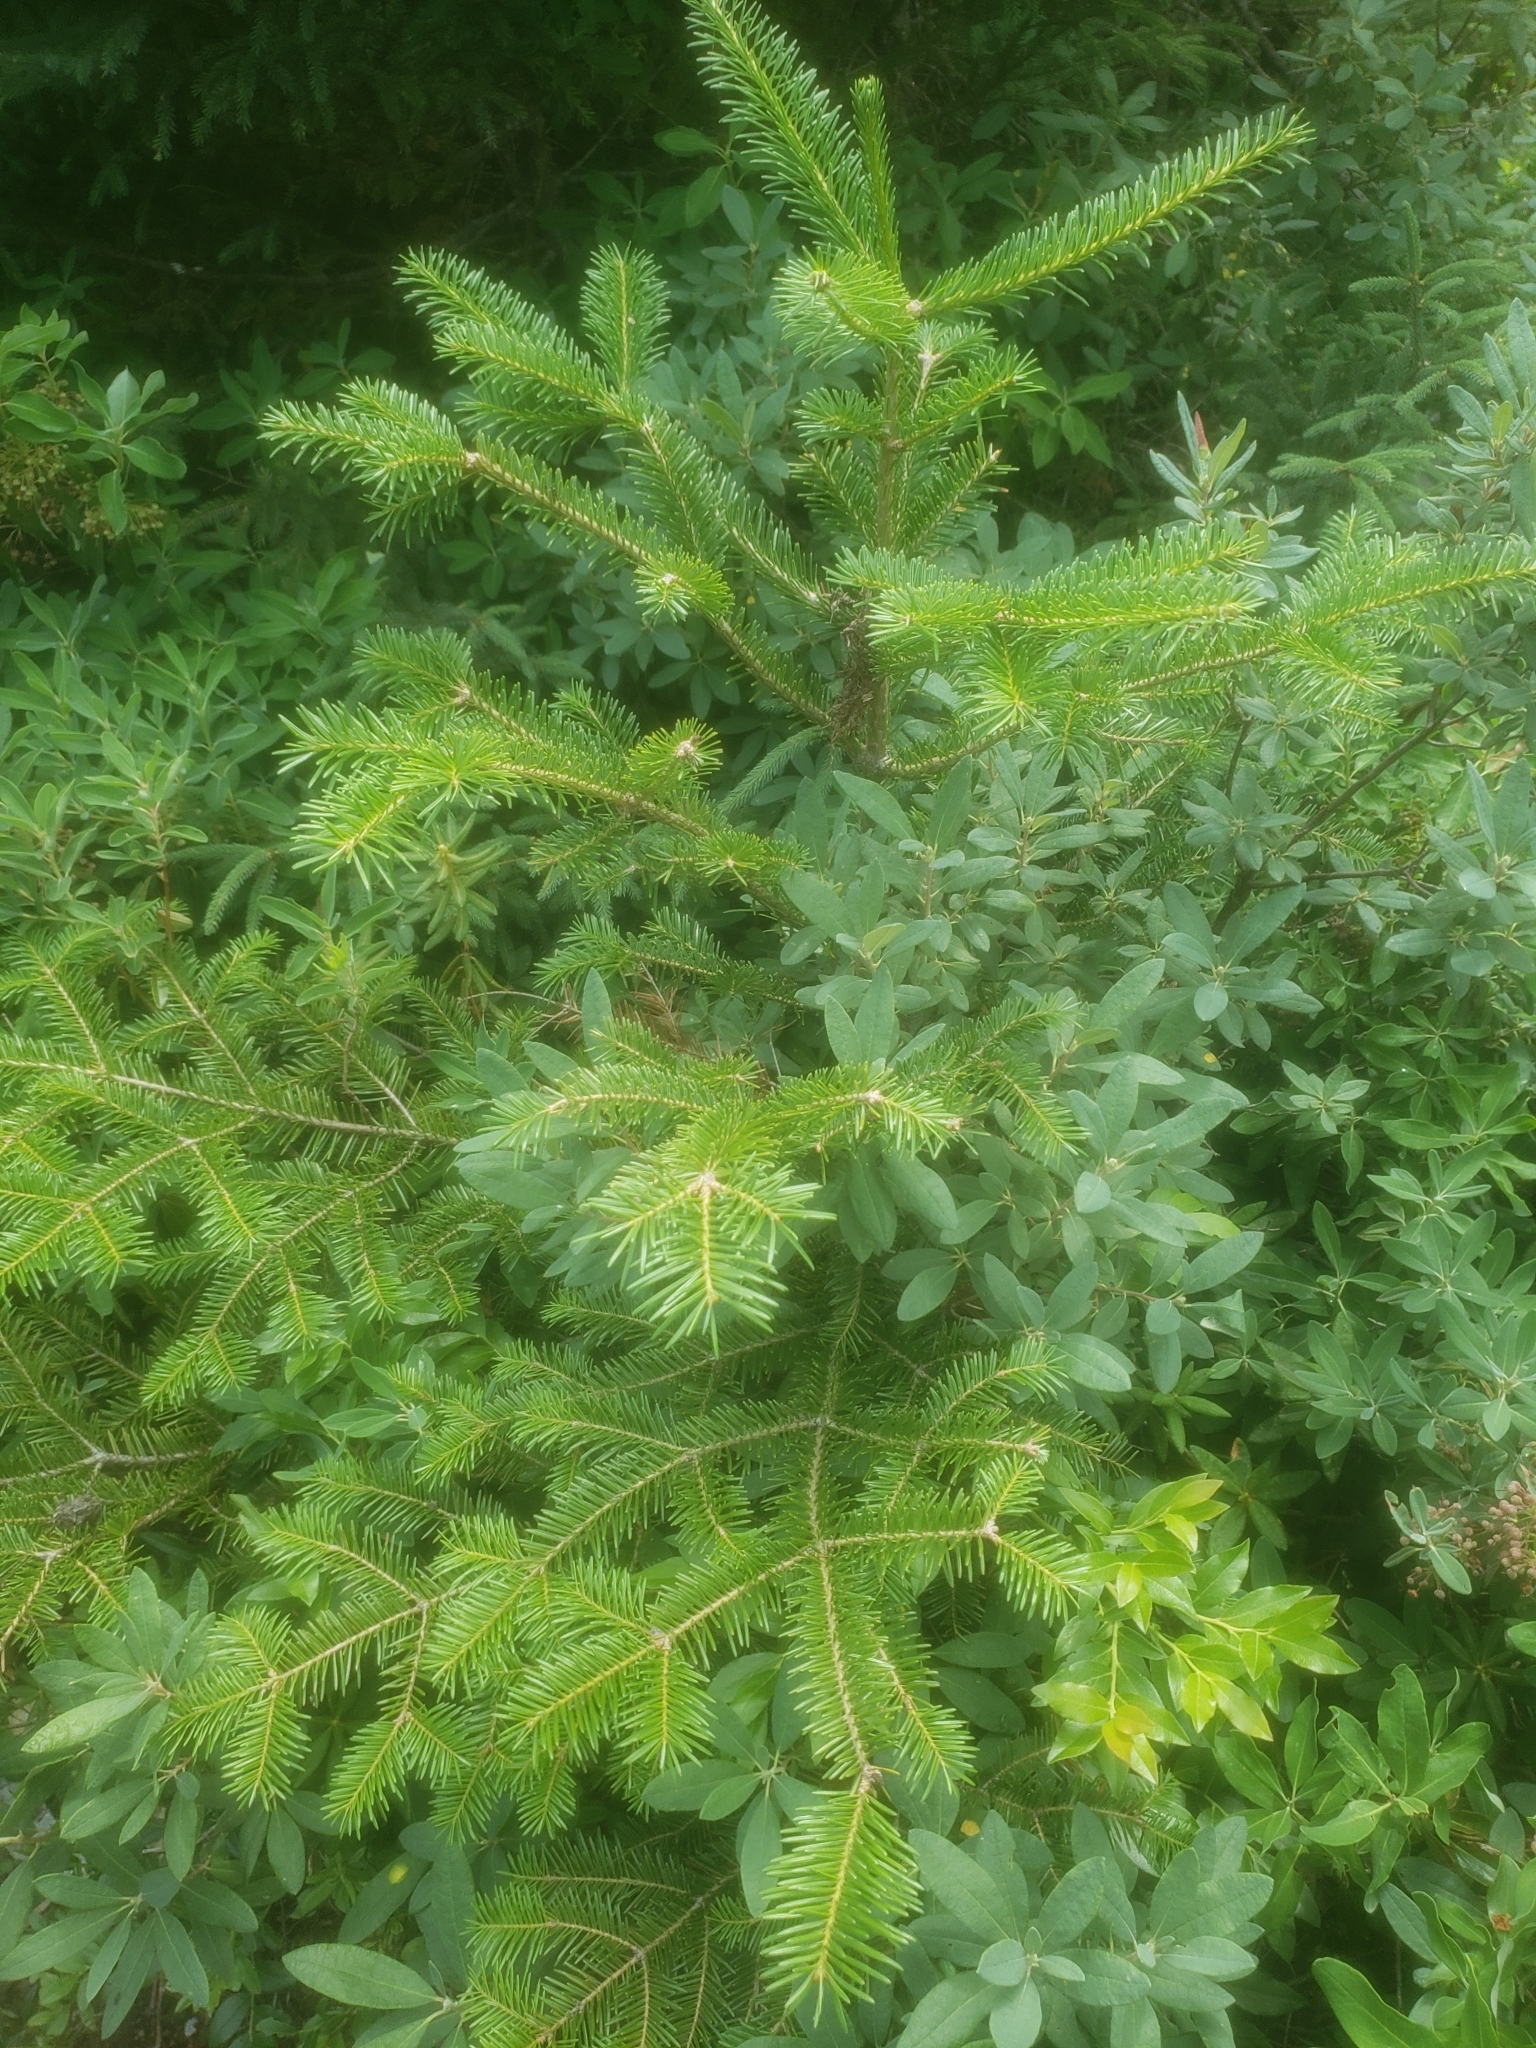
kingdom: Plantae
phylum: Tracheophyta
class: Pinopsida
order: Pinales
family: Pinaceae
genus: Abies
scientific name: Abies balsamea
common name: Balsam fir
